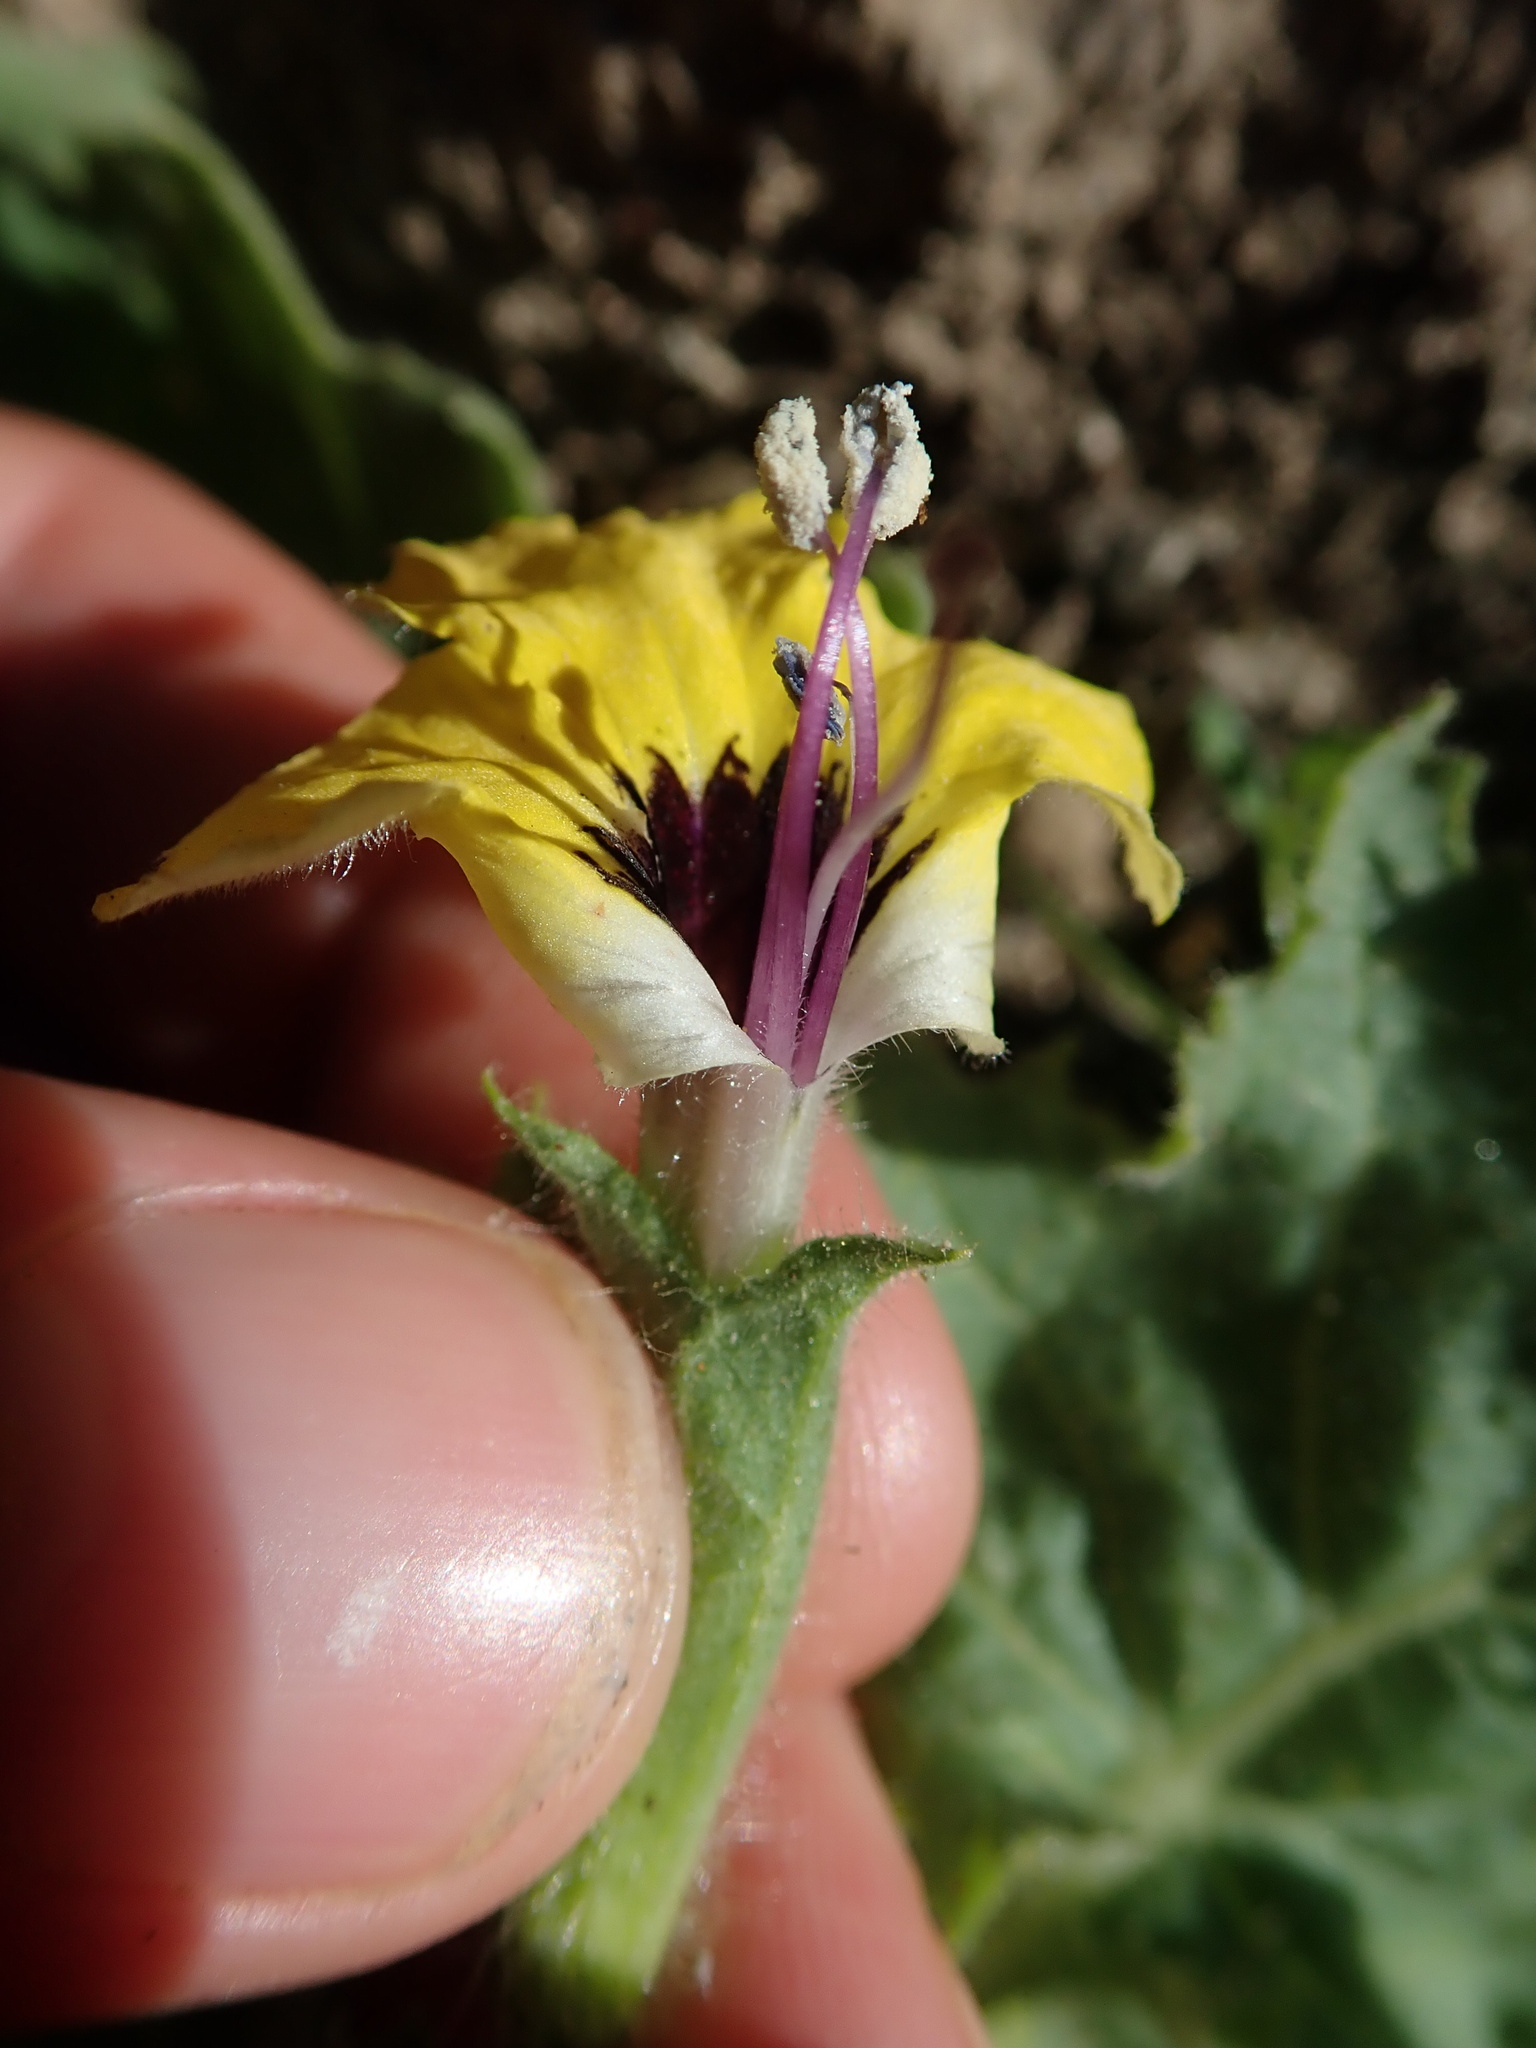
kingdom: Plantae
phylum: Tracheophyta
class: Magnoliopsida
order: Solanales
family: Solanaceae
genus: Hyoscyamus
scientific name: Hyoscyamus aureus
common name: Golden henbane
